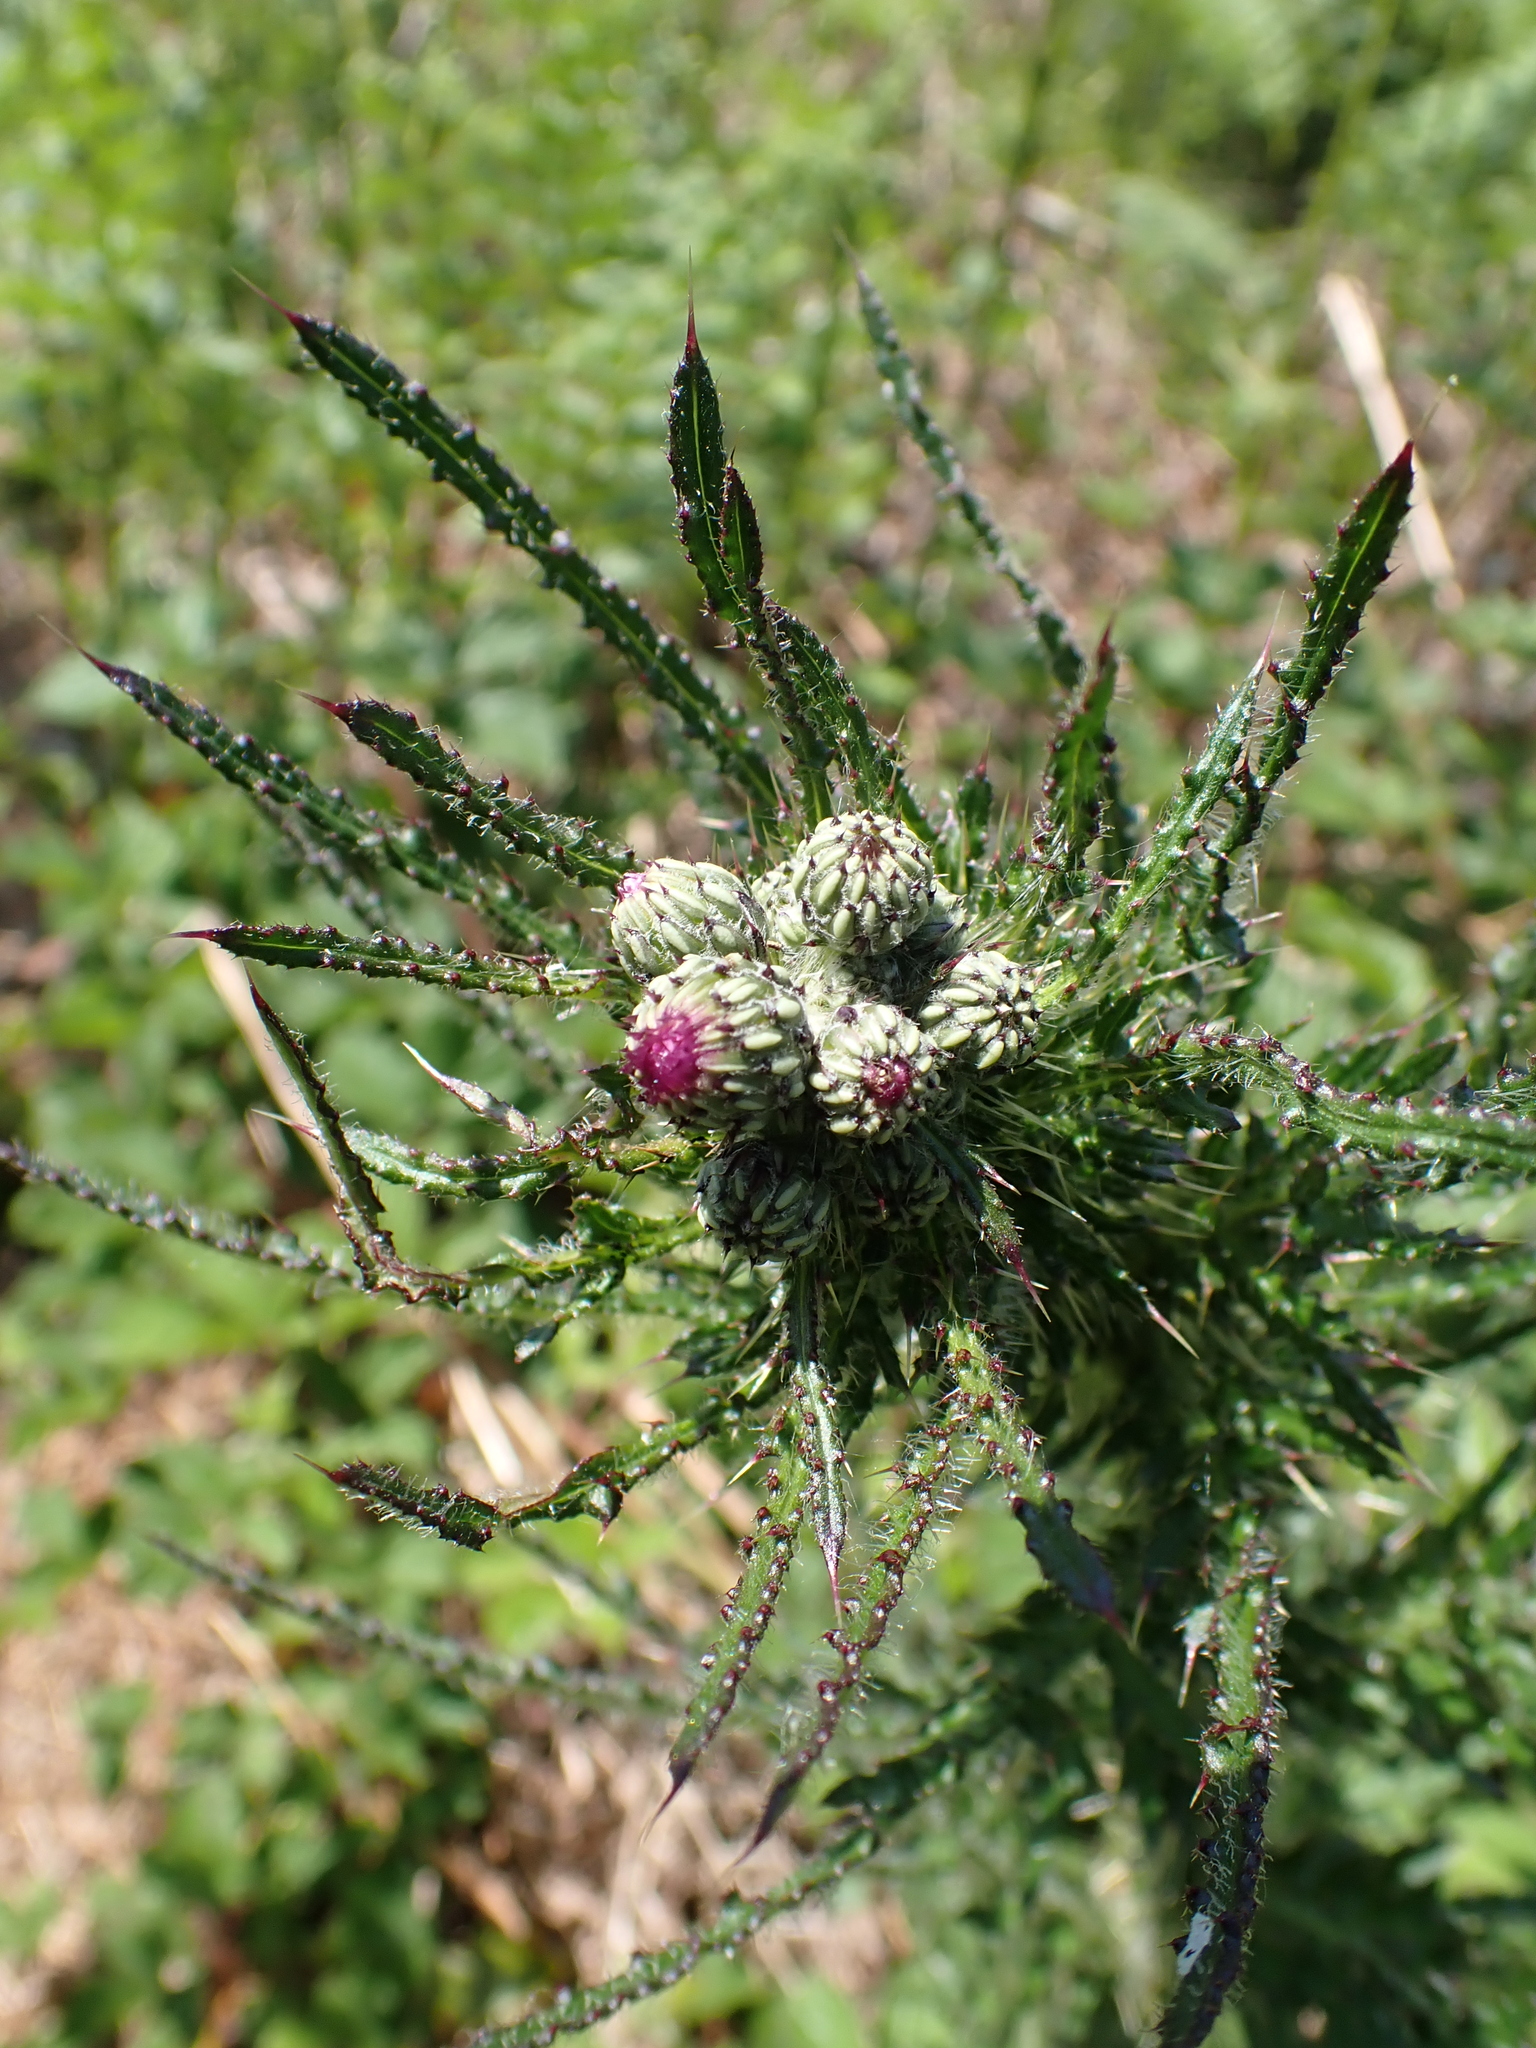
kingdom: Plantae
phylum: Tracheophyta
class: Magnoliopsida
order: Asterales
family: Asteraceae
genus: Cirsium
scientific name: Cirsium palustre
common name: Marsh thistle
